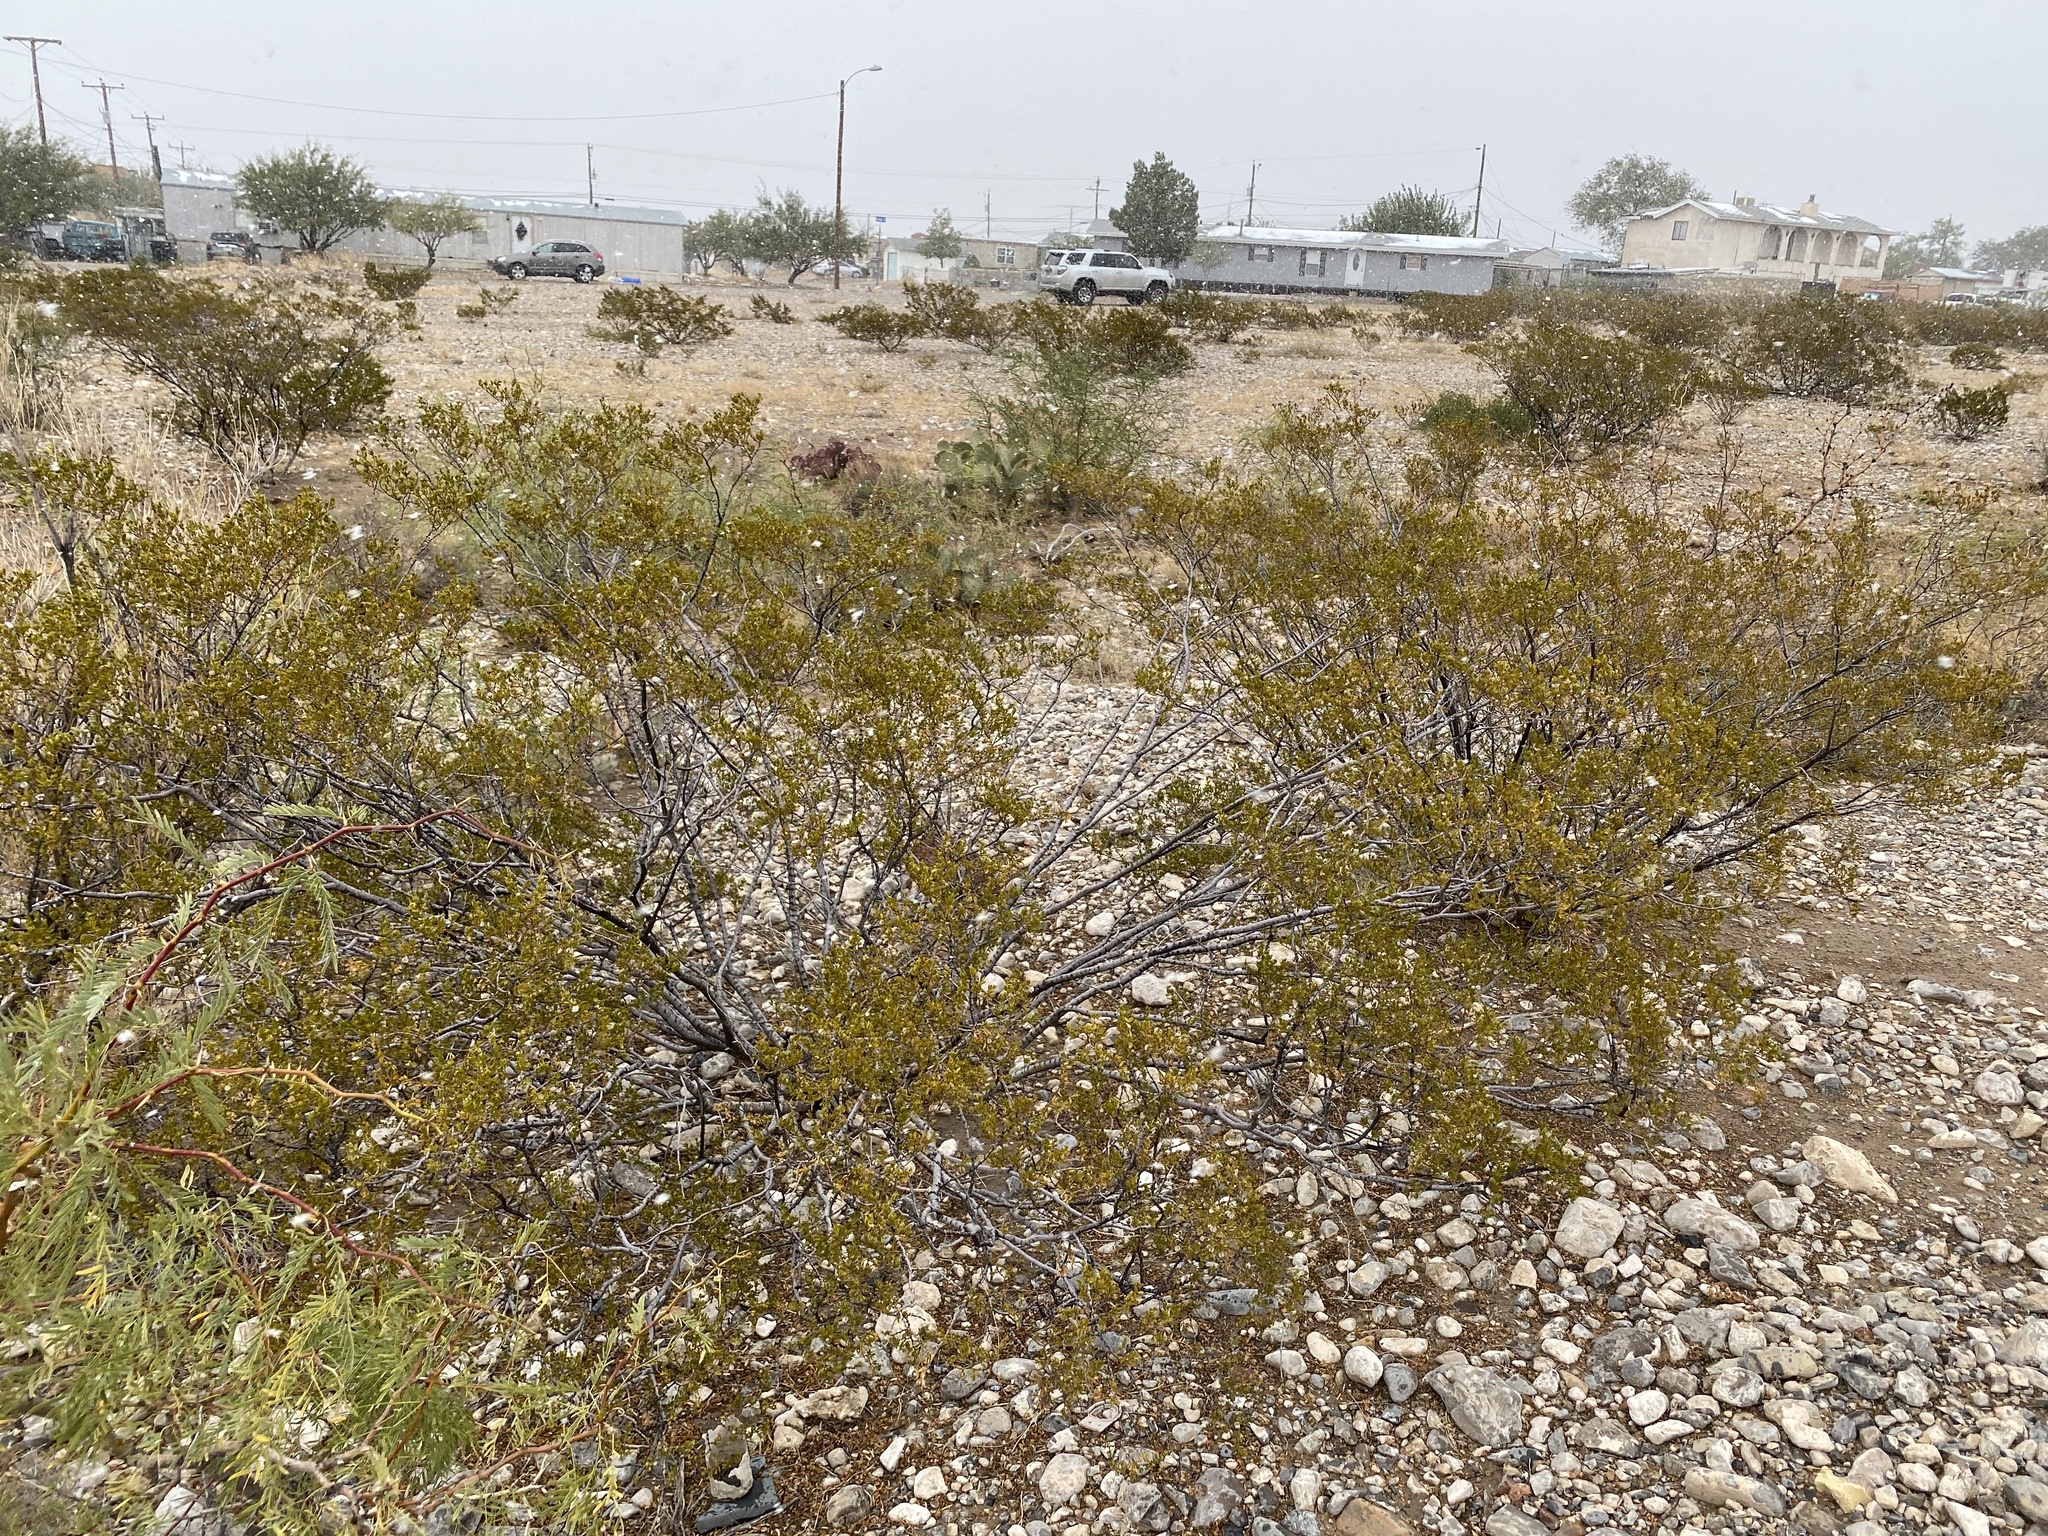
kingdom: Plantae
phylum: Tracheophyta
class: Magnoliopsida
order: Zygophyllales
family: Zygophyllaceae
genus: Larrea
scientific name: Larrea tridentata
